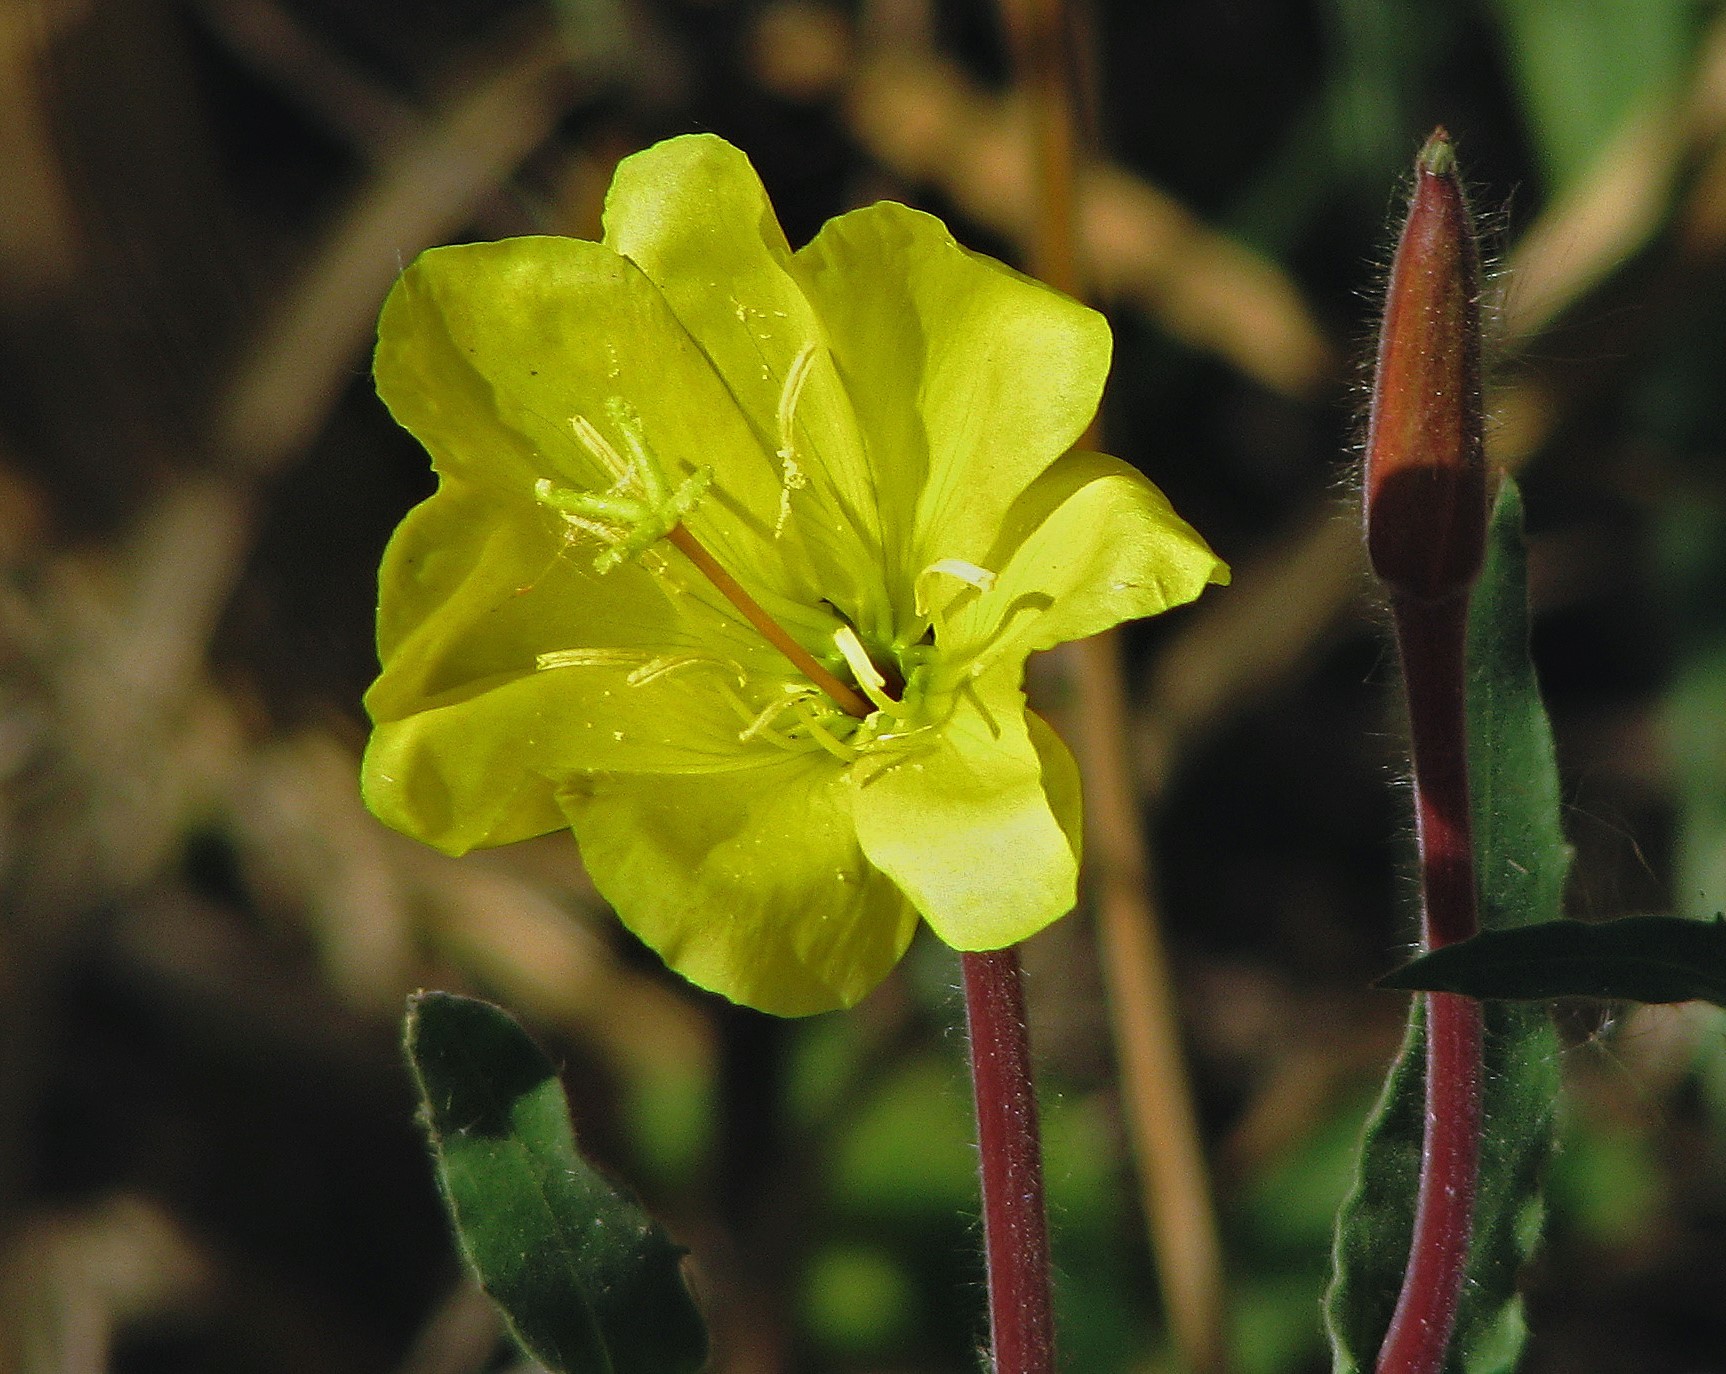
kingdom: Plantae
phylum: Tracheophyta
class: Magnoliopsida
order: Myrtales
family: Onagraceae
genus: Oenothera
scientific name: Oenothera affinis
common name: Longflower evening primrose
